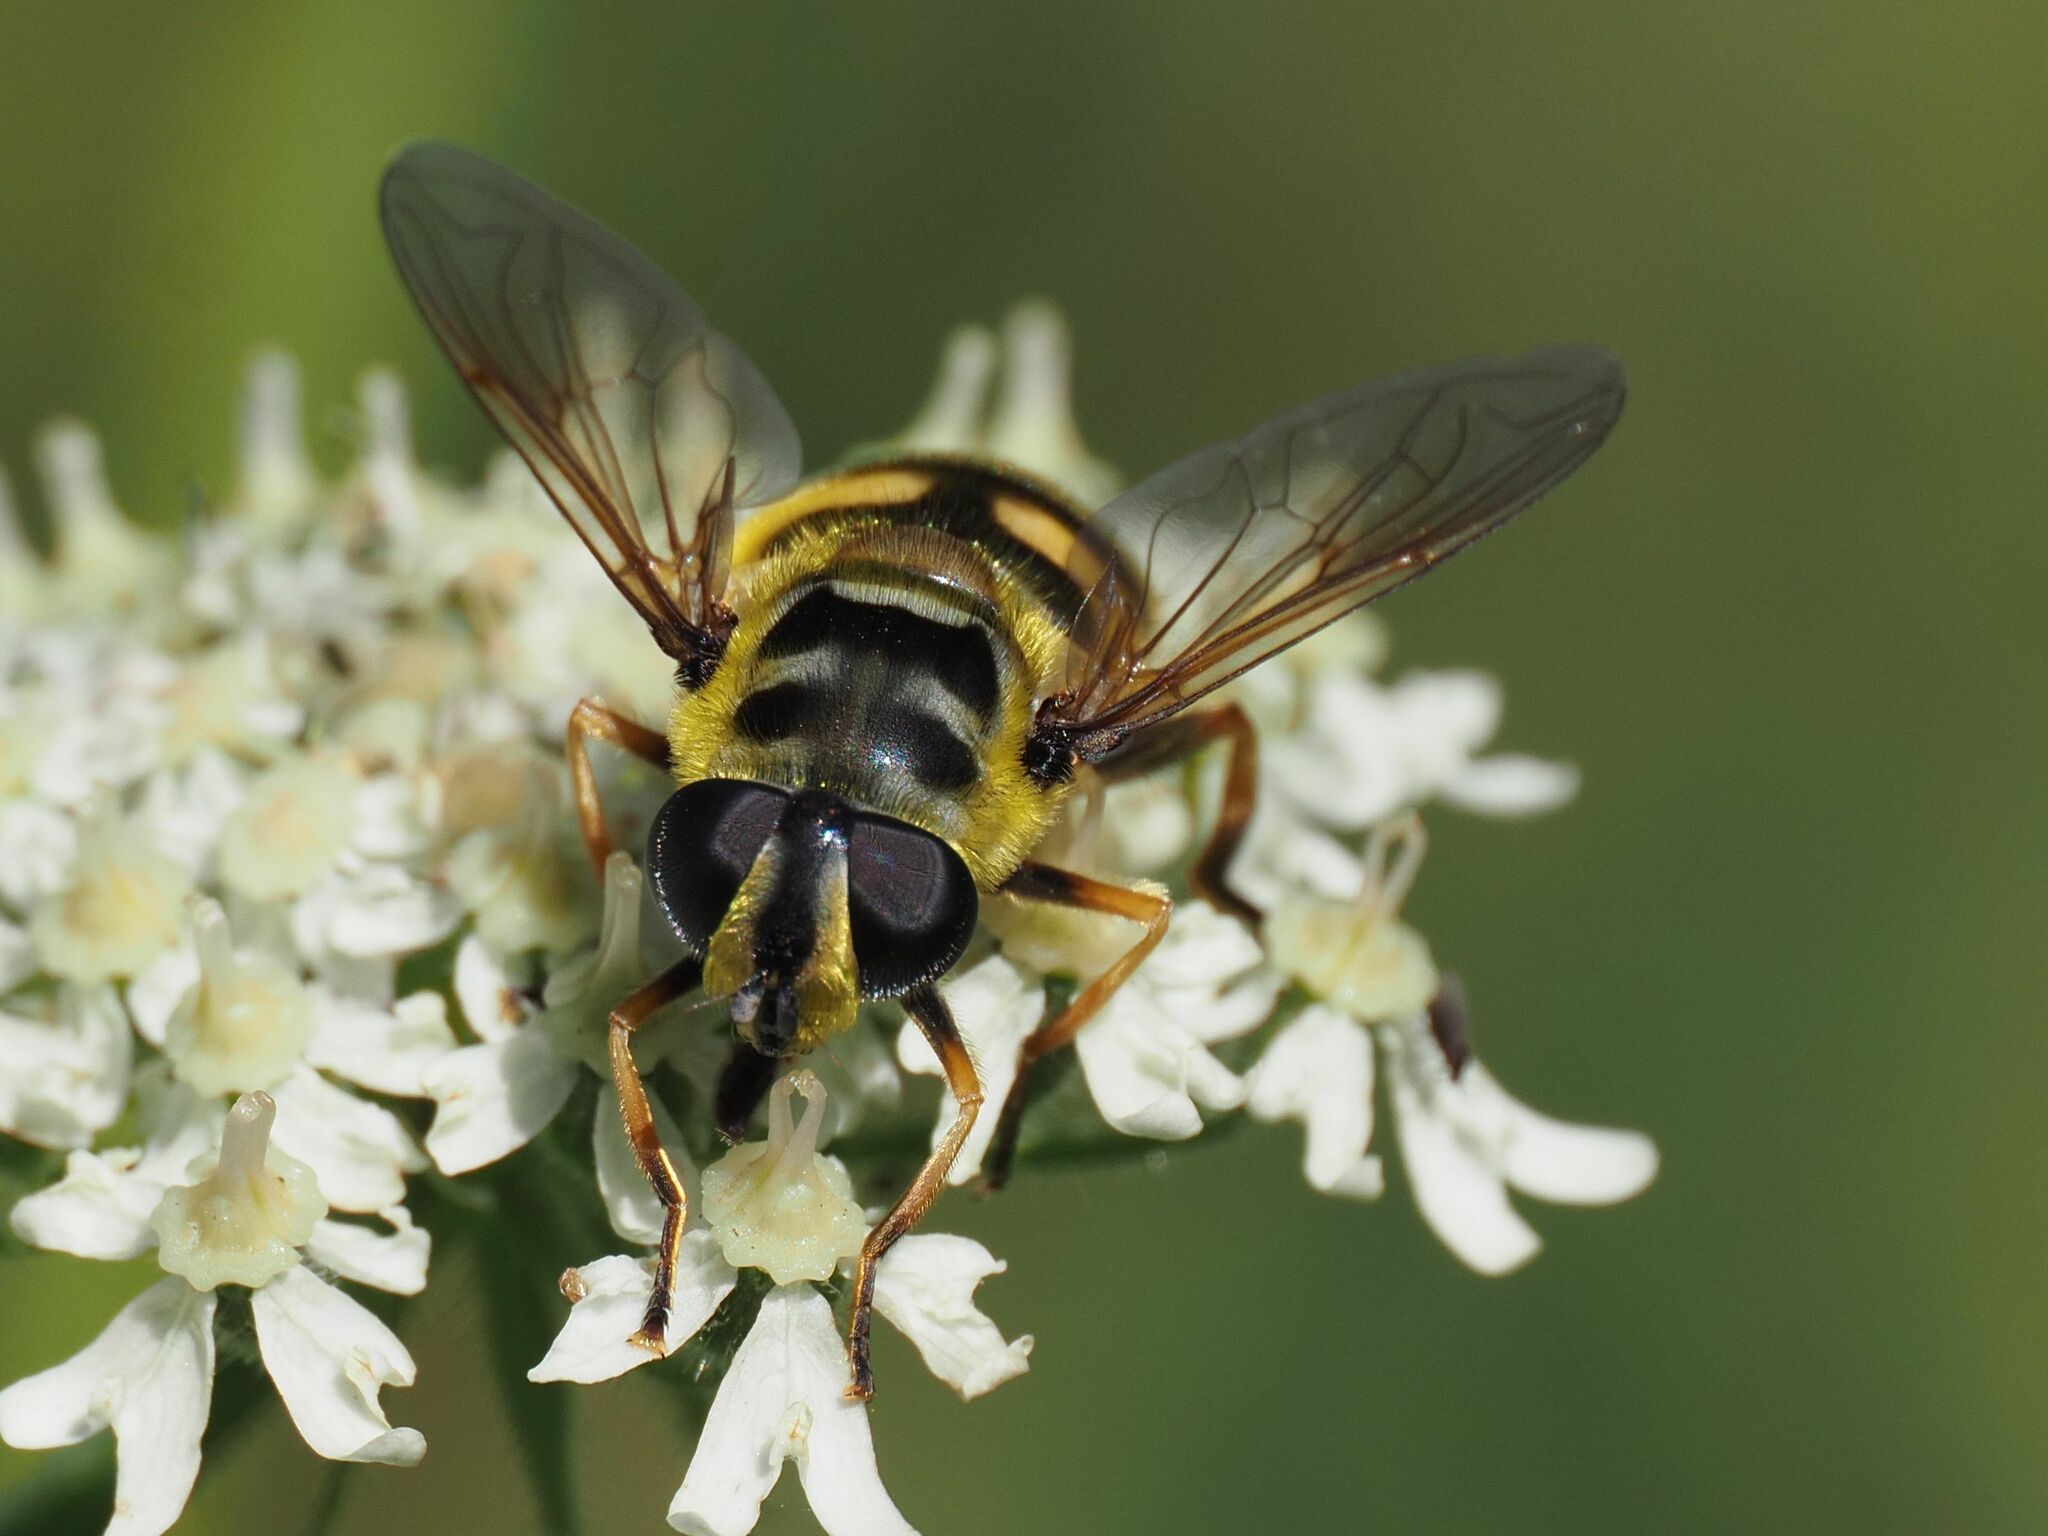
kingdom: Animalia
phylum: Arthropoda
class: Insecta
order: Diptera
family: Syrphidae
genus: Myathropa
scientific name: Myathropa florea
